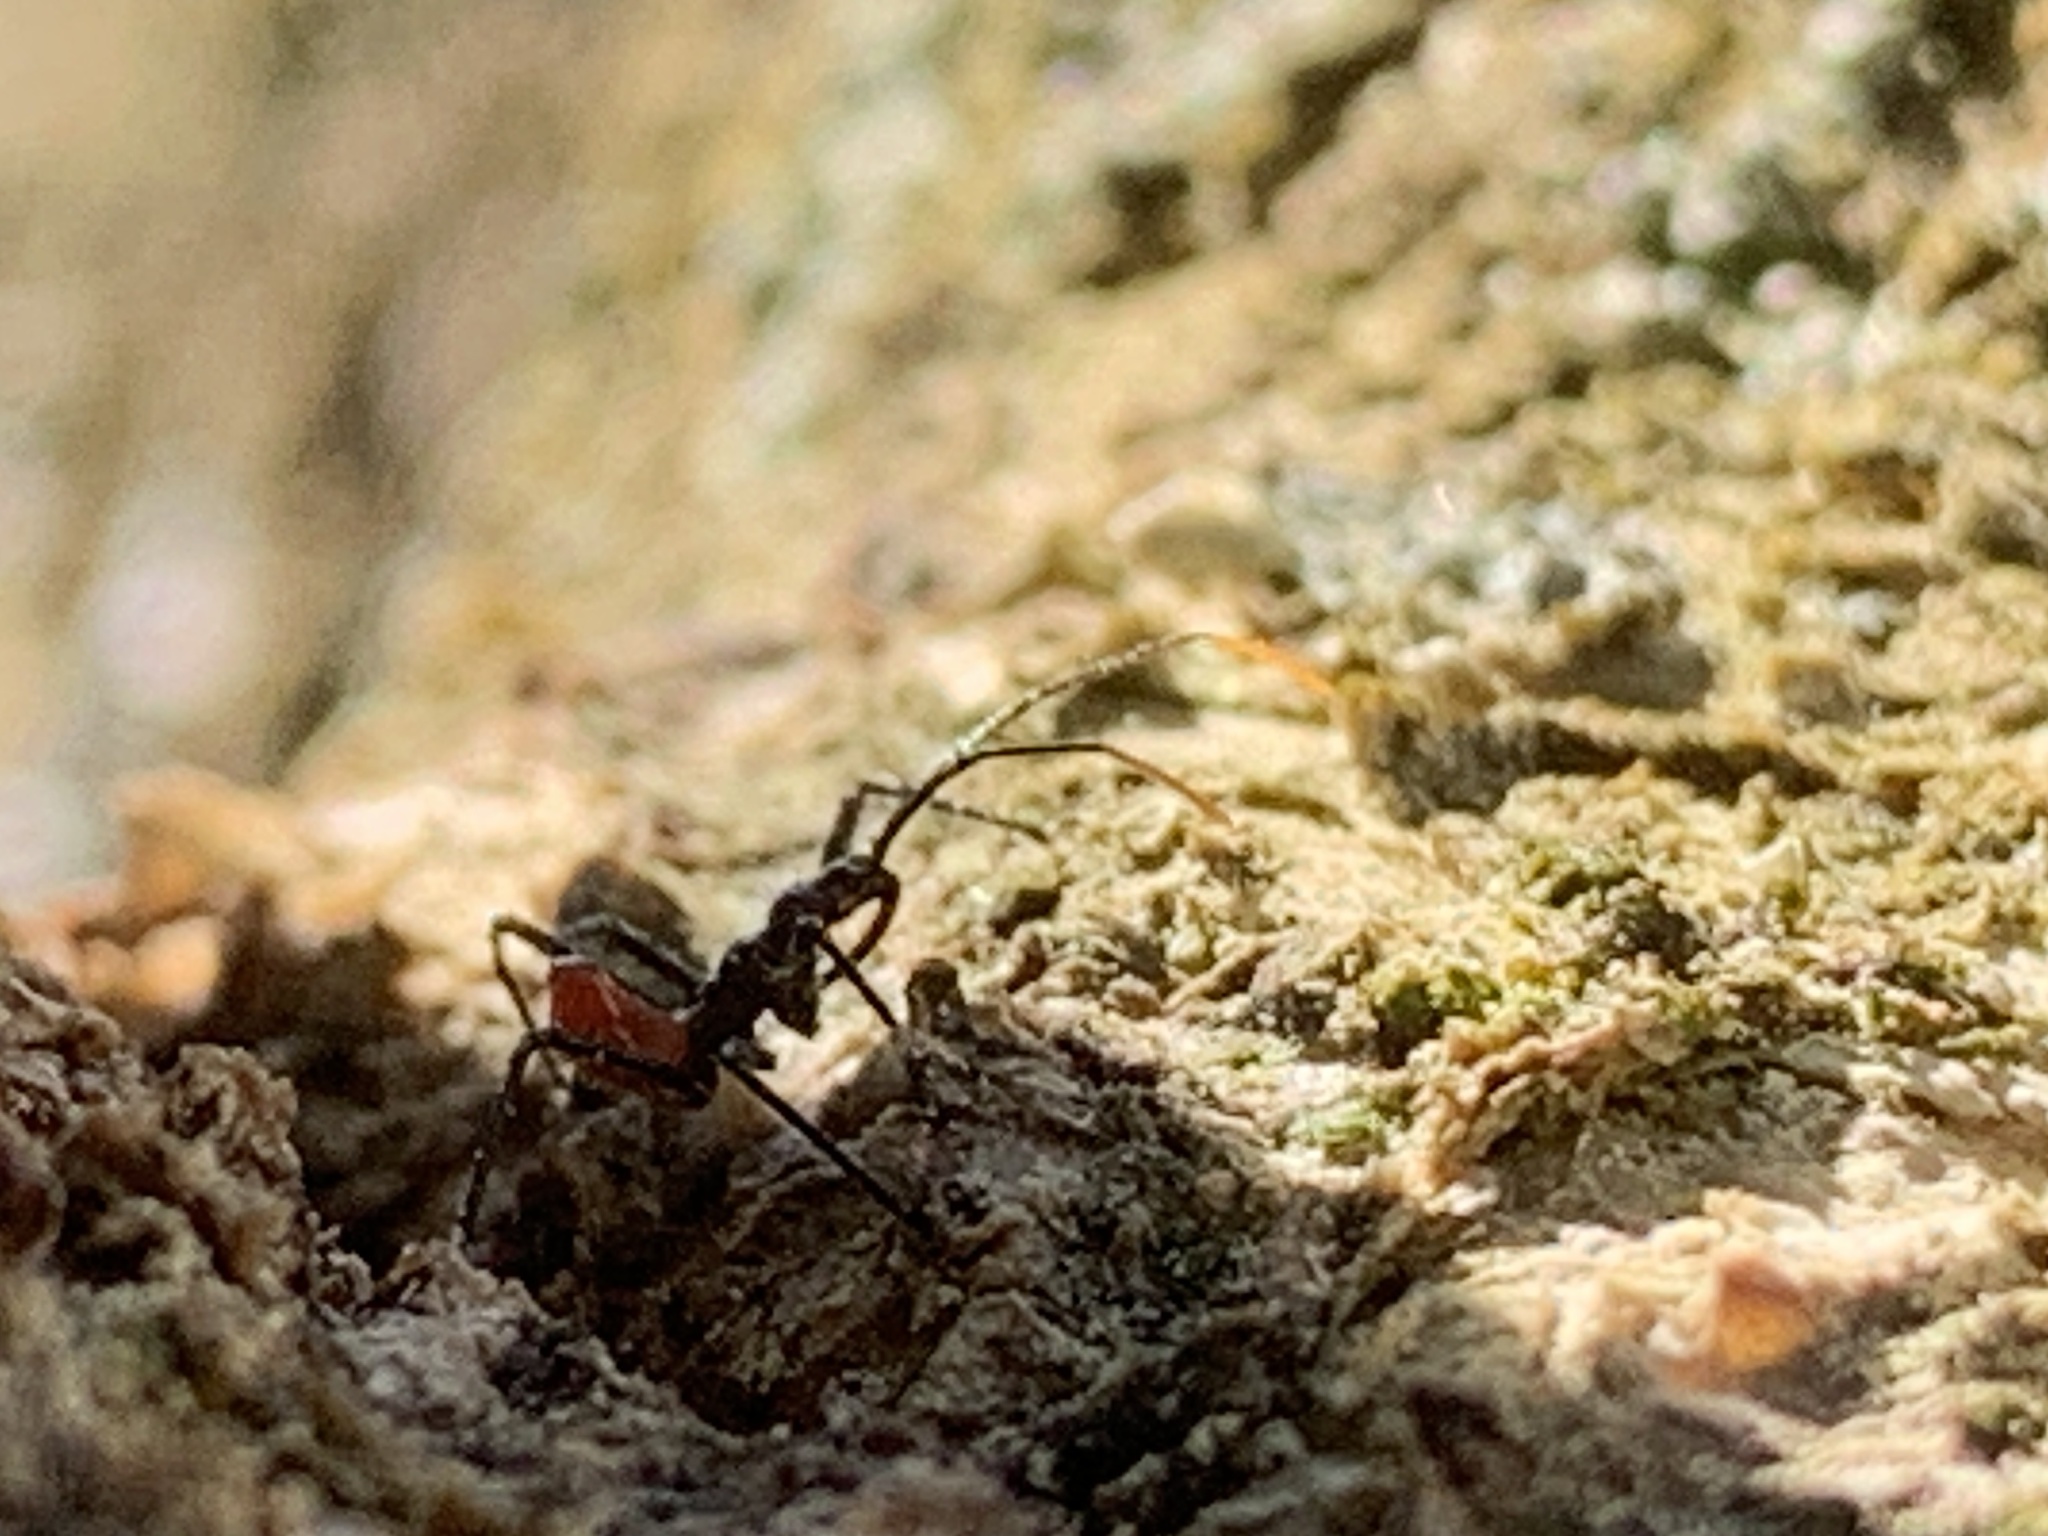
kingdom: Animalia
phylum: Arthropoda
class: Insecta
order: Hemiptera
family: Reduviidae
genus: Arilus
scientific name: Arilus cristatus
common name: North american wheel bug
